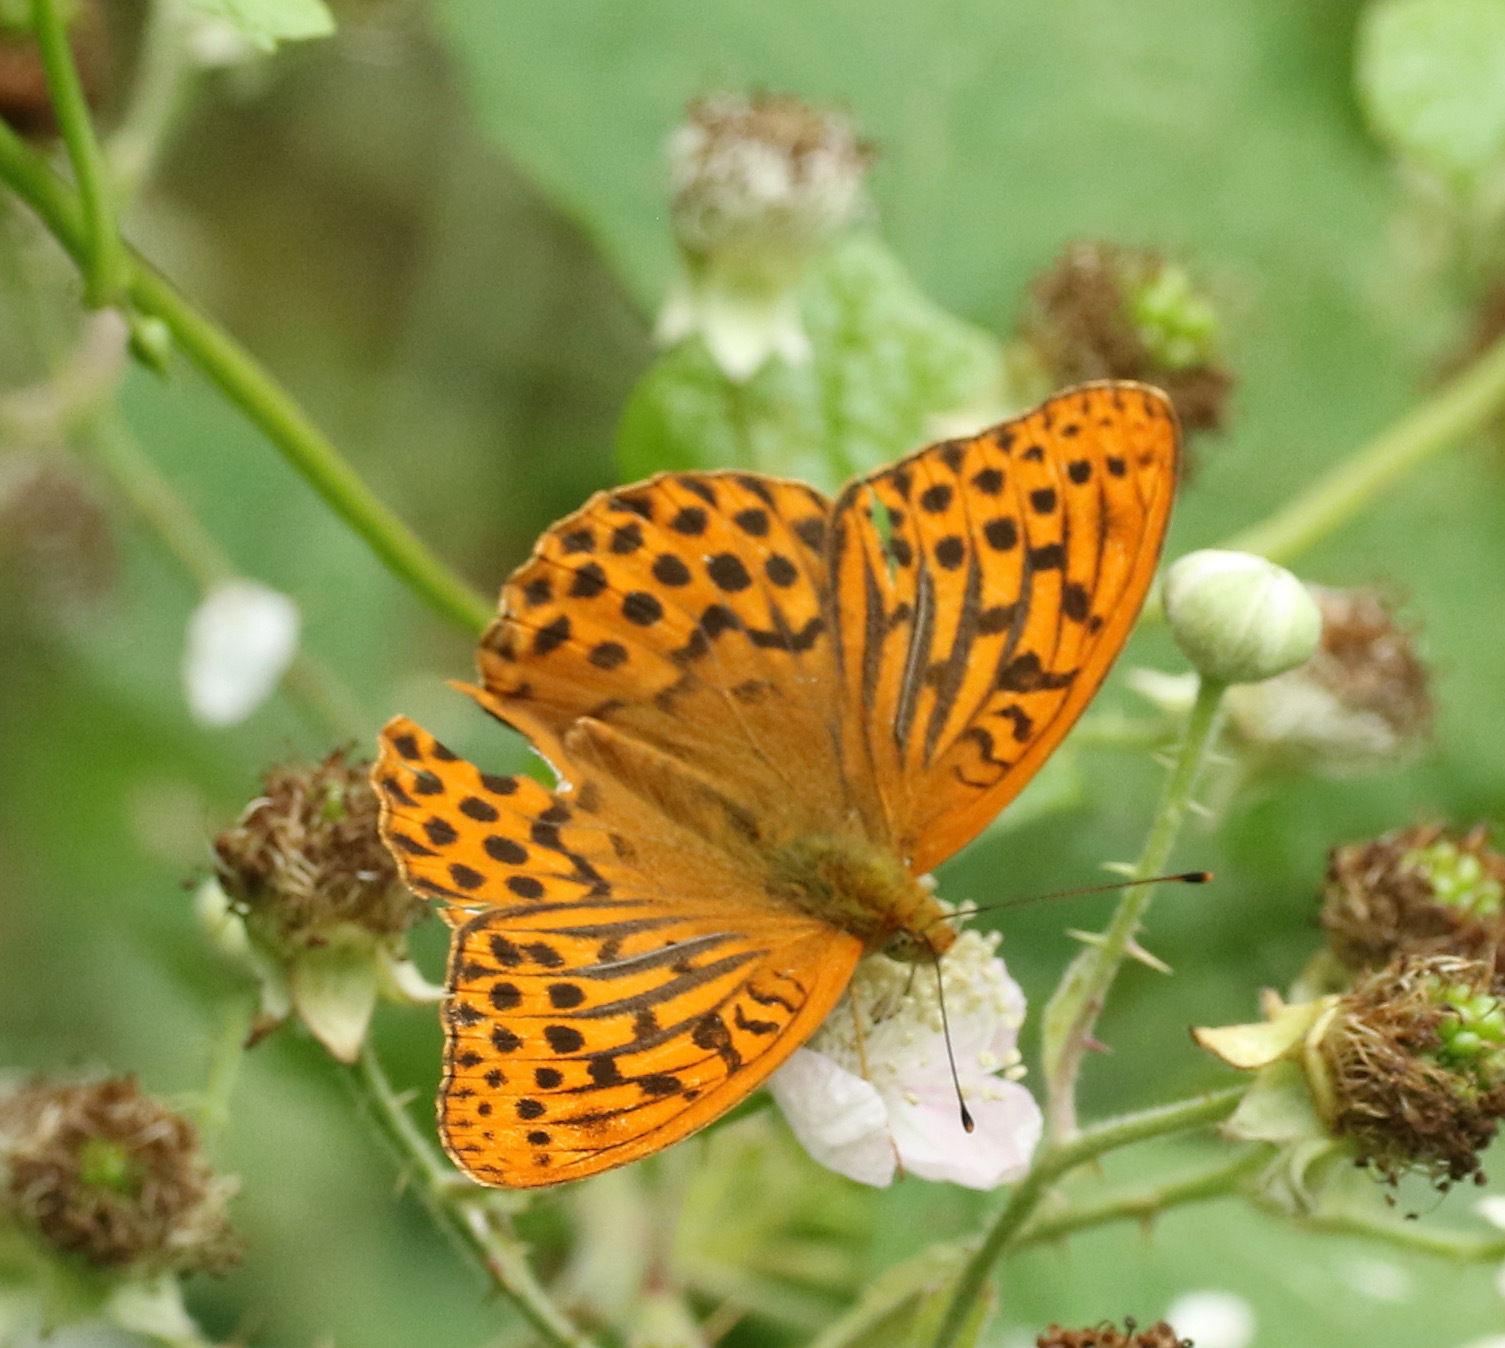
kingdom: Animalia
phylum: Arthropoda
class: Insecta
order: Lepidoptera
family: Nymphalidae
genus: Argynnis
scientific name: Argynnis paphia
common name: Silver-washed fritillary
